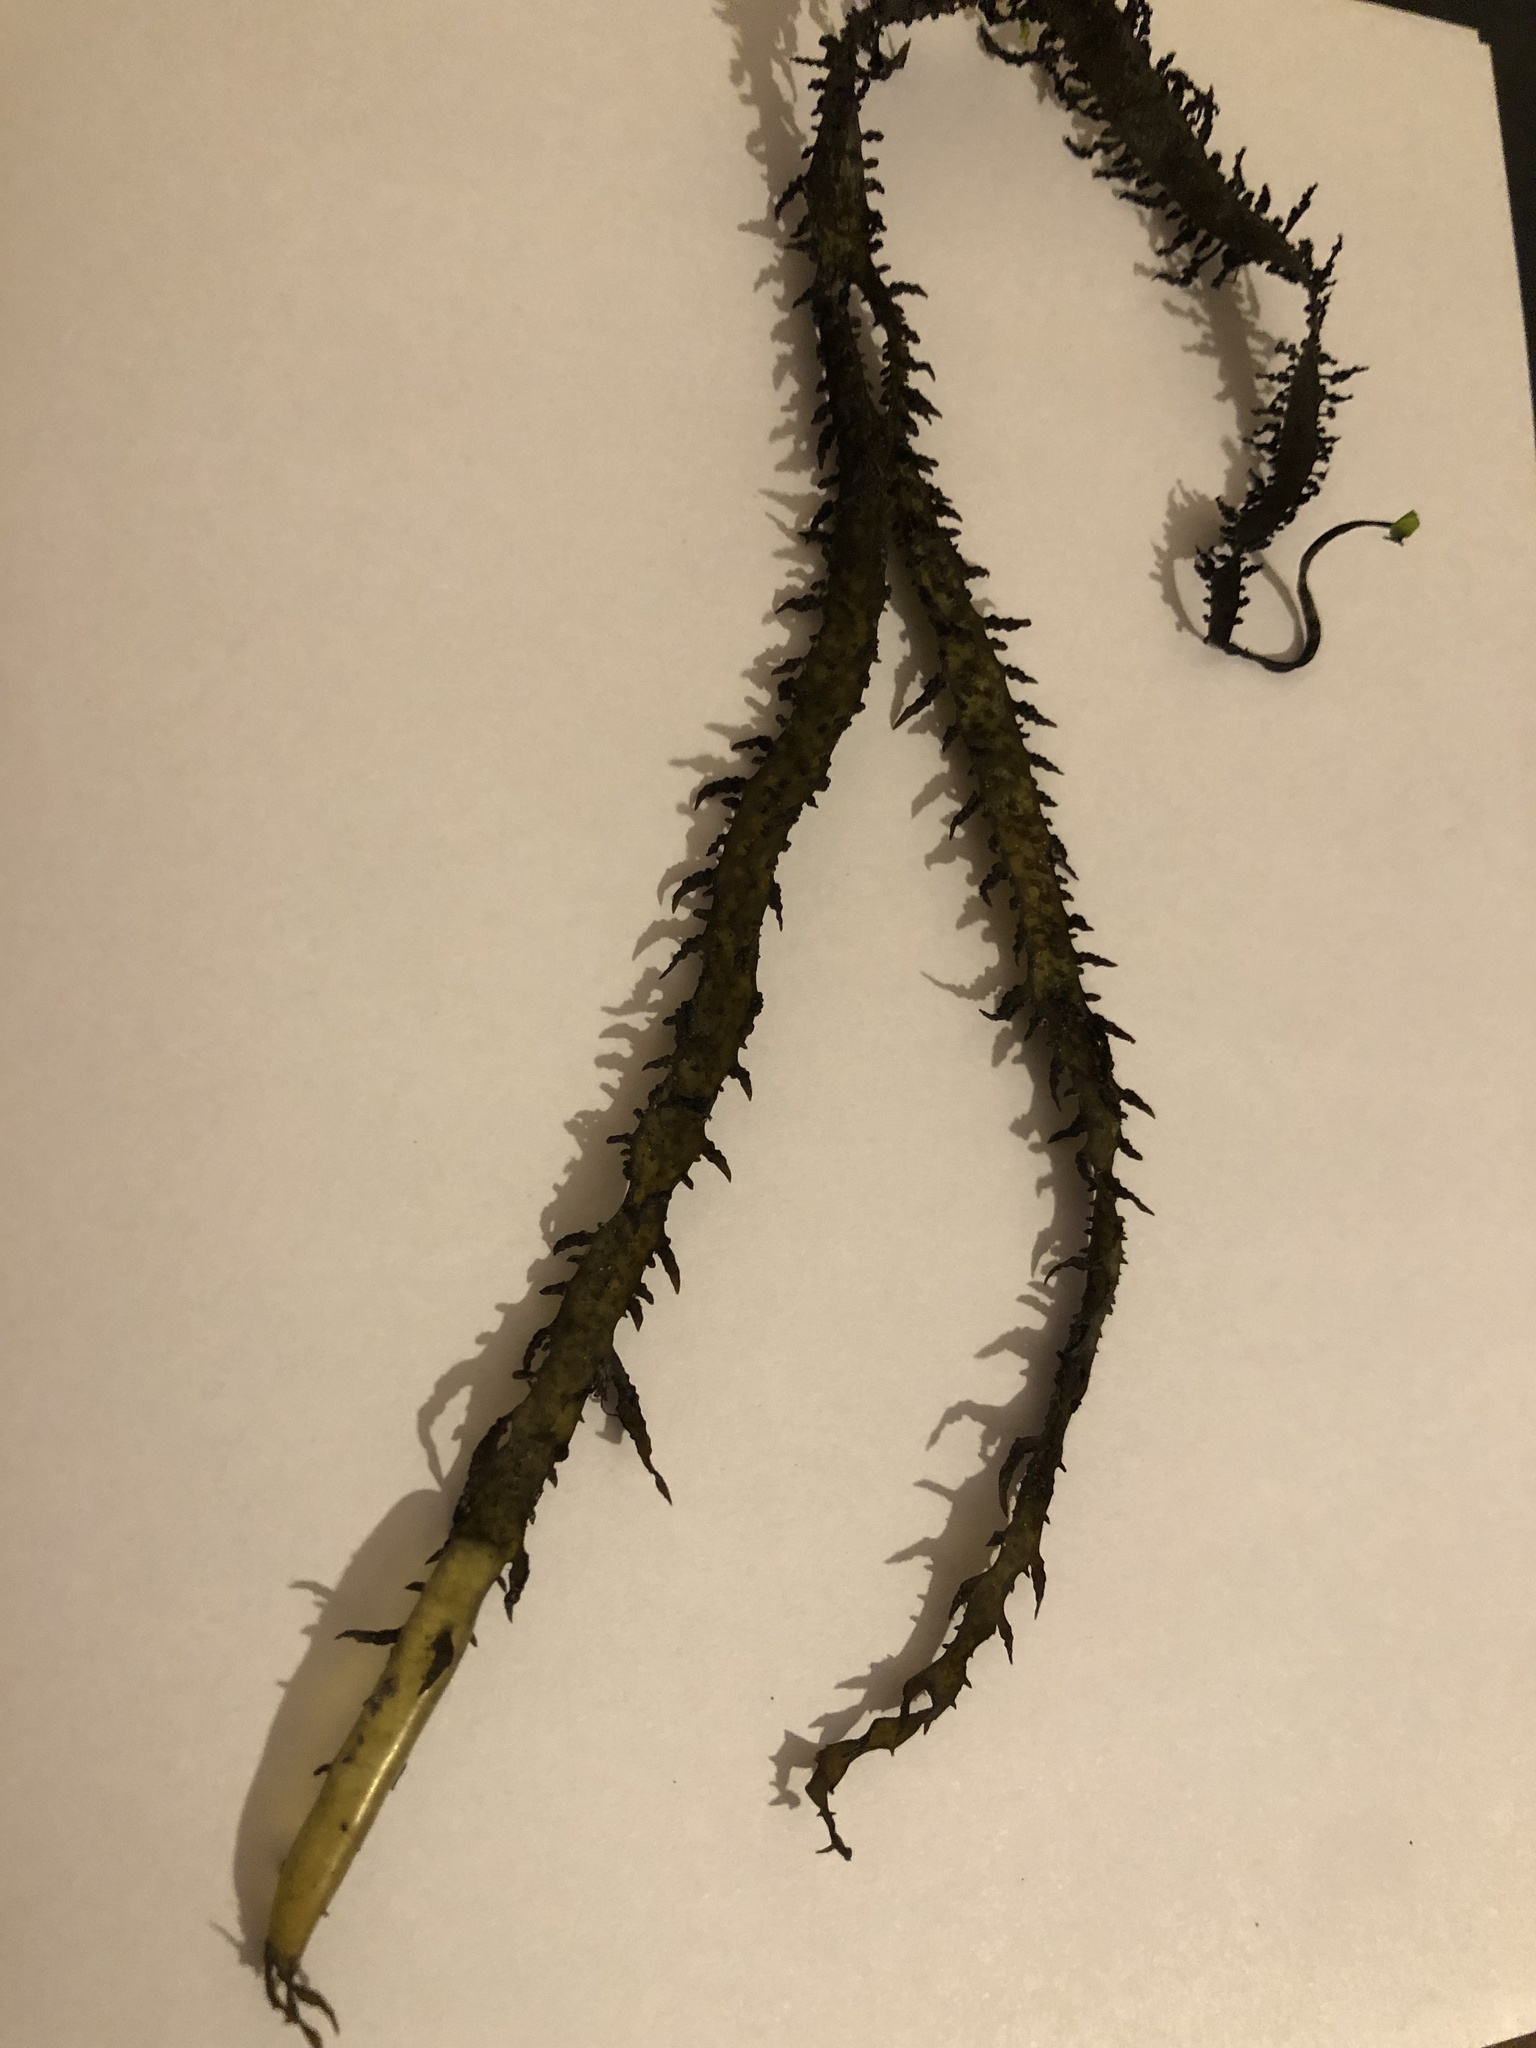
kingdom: Plantae
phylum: Rhodophyta
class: Florideophyceae
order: Gigartinales
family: Gigartinaceae
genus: Chondracanthus
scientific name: Chondracanthus chamissoi
